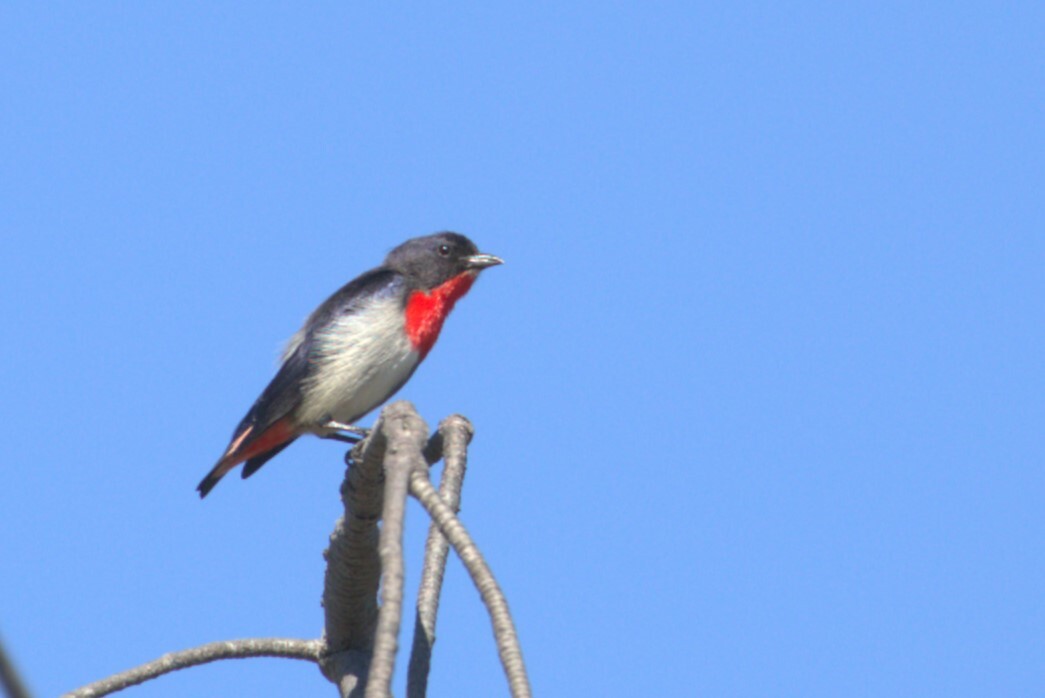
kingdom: Animalia
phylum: Chordata
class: Aves
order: Passeriformes
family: Dicaeidae
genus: Dicaeum
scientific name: Dicaeum hirundinaceum
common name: Mistletoebird
